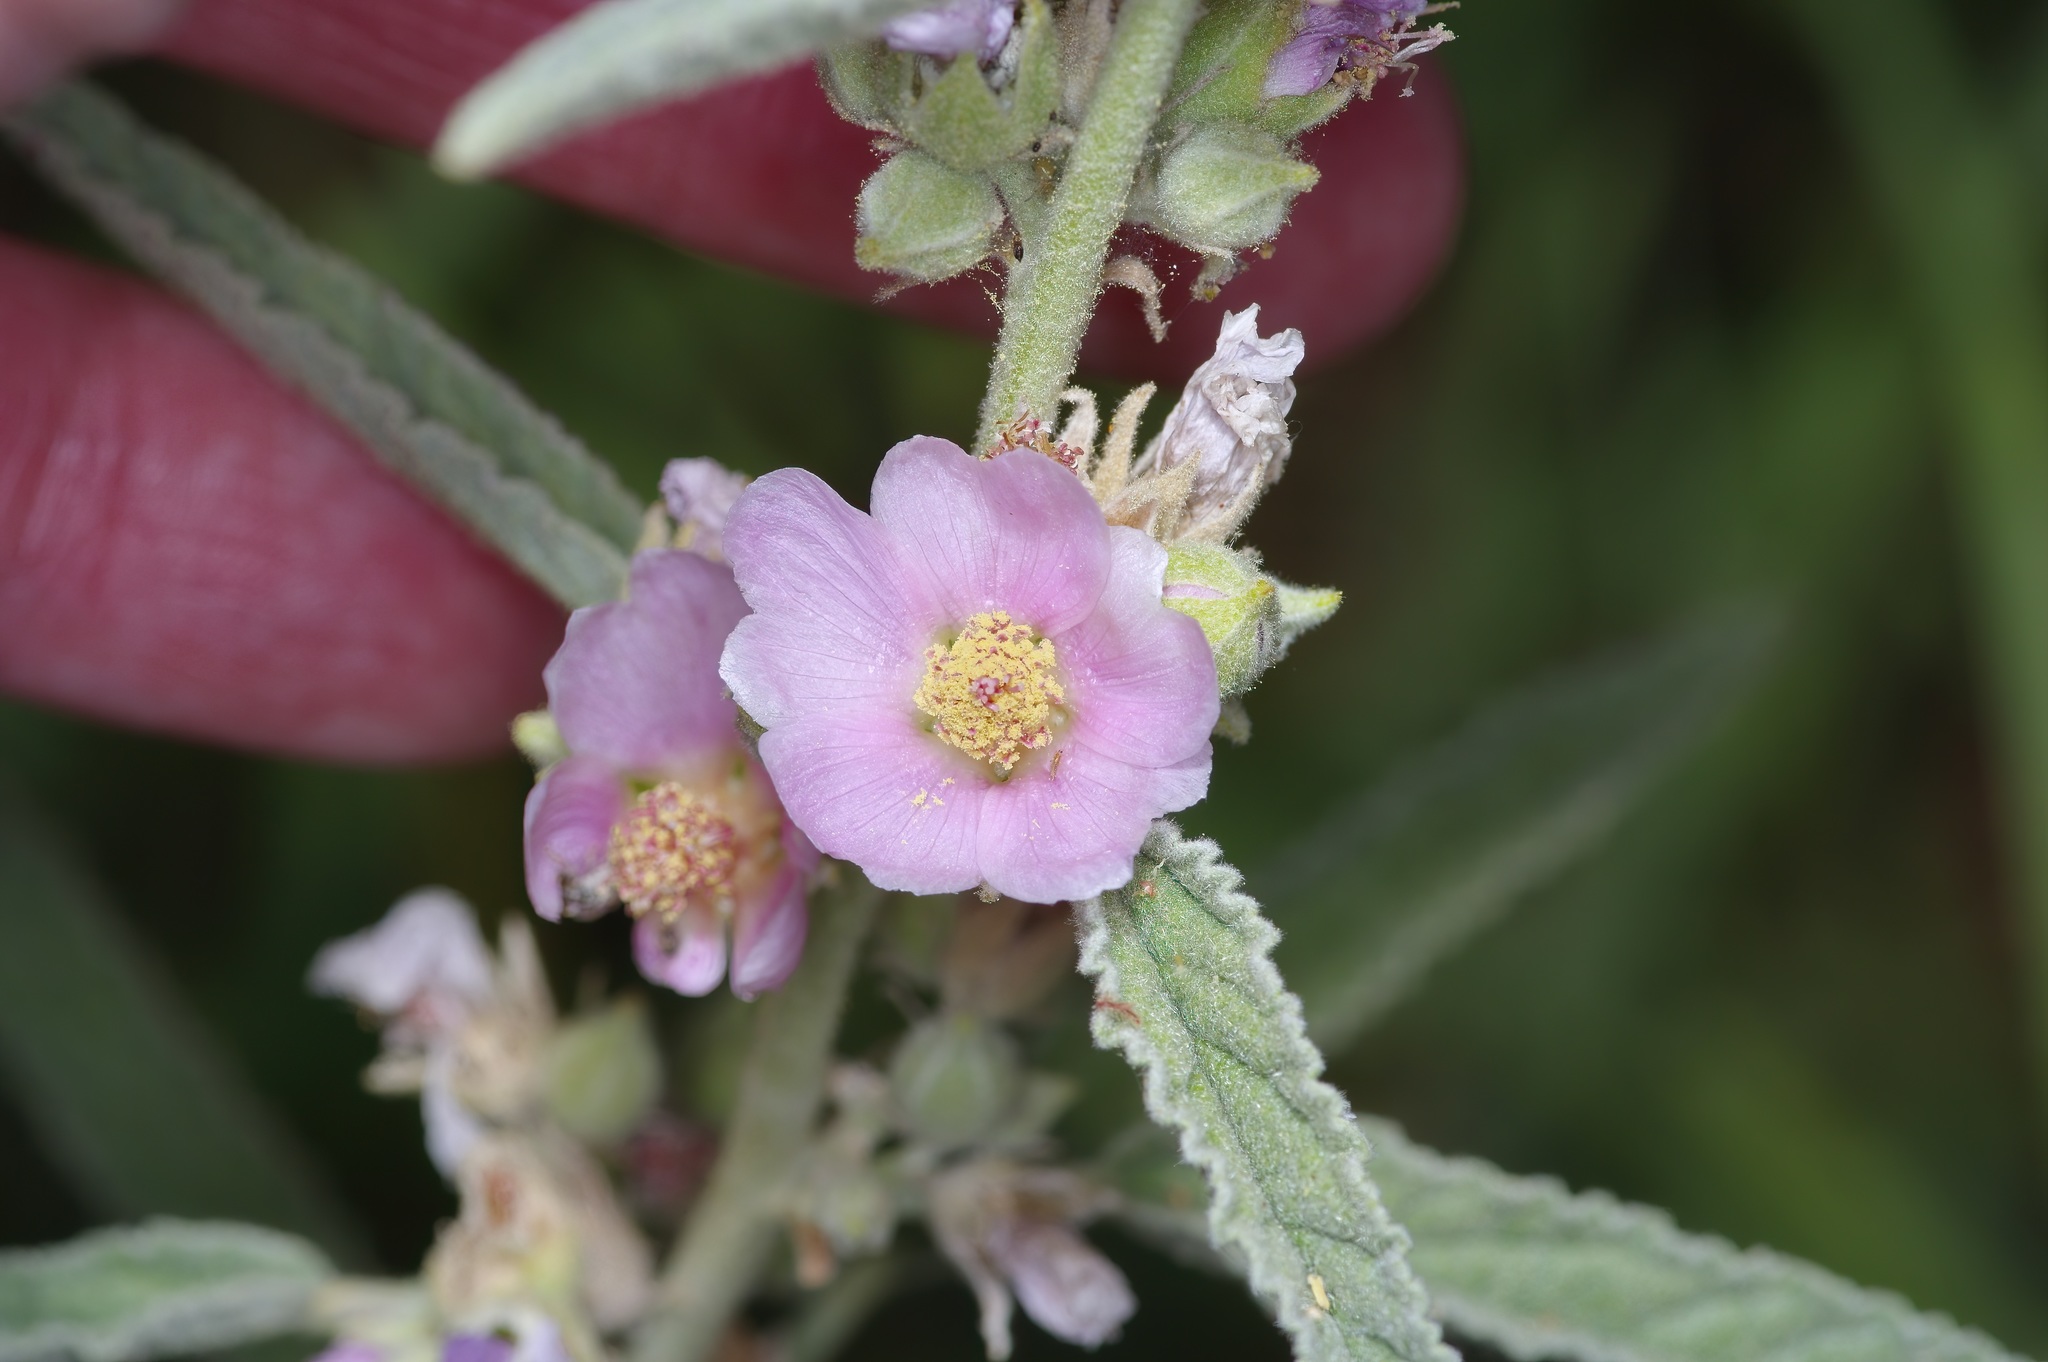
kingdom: Plantae
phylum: Tracheophyta
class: Magnoliopsida
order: Malvales
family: Malvaceae
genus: Sphaeralcea
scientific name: Sphaeralcea angustifolia
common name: Copper globe-mallow
